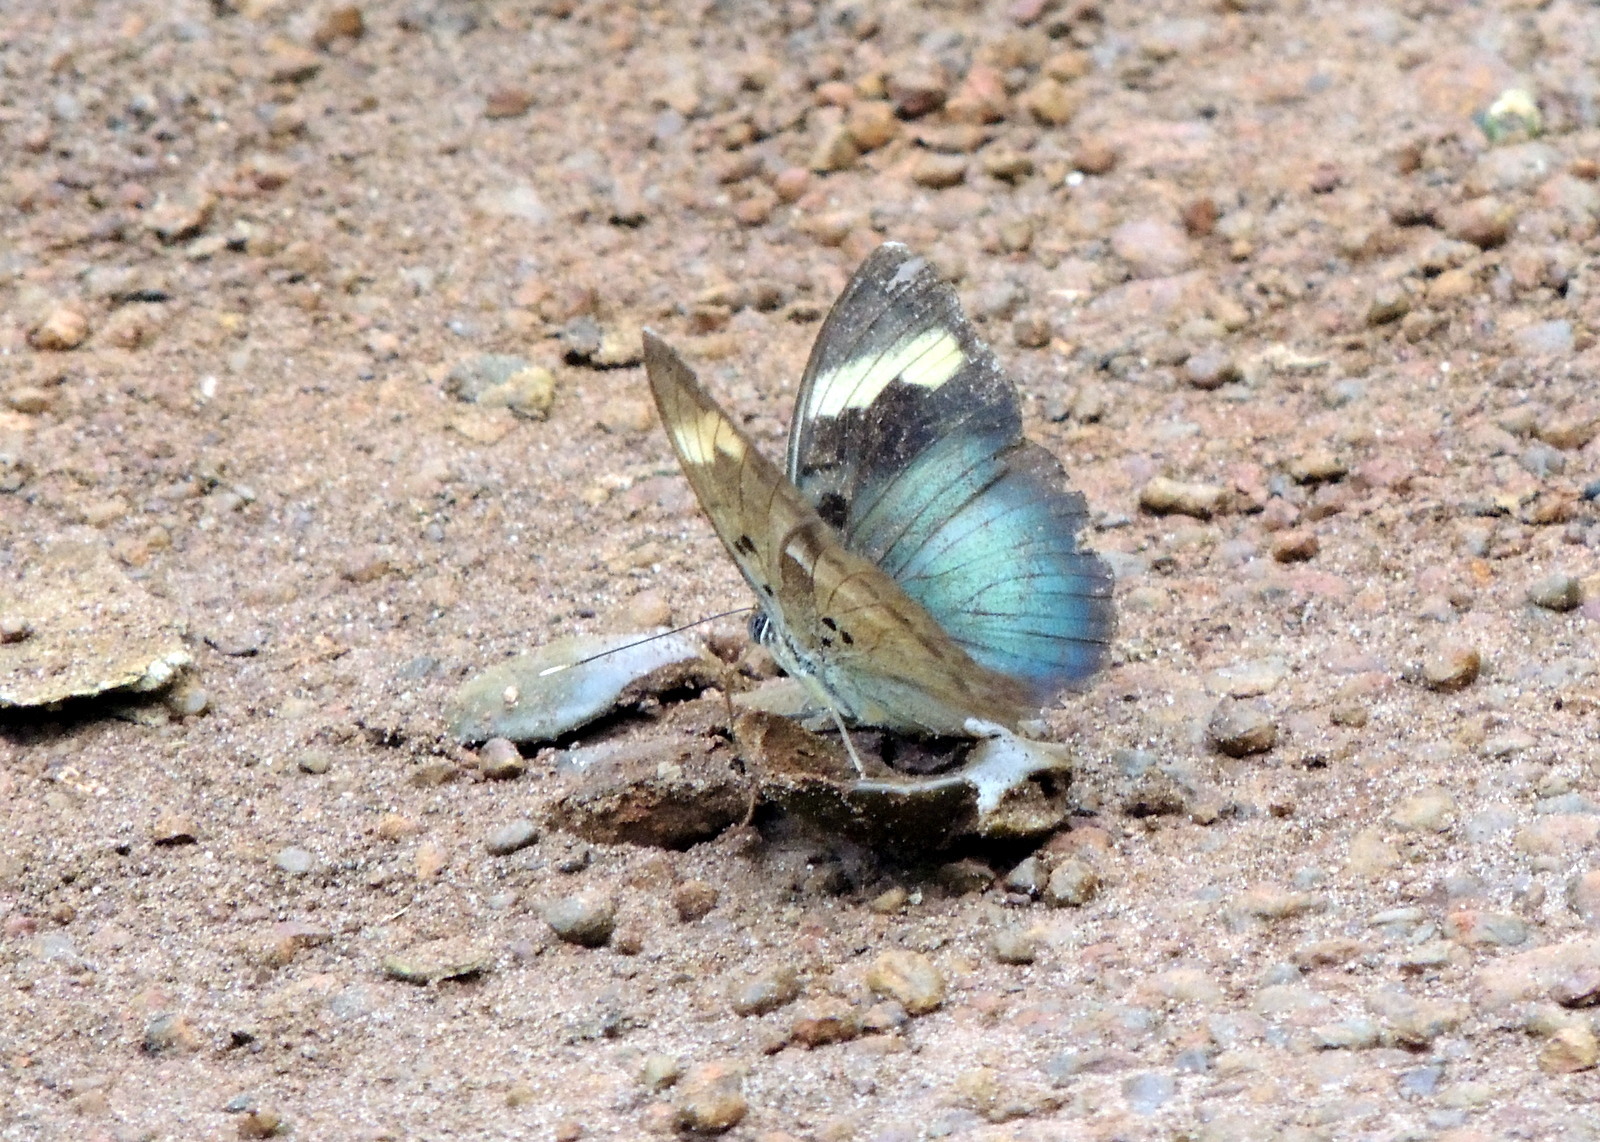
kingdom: Animalia
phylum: Arthropoda
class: Insecta
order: Lepidoptera
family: Nymphalidae
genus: Euphaedra
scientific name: Euphaedra medon
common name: Widespread forester
